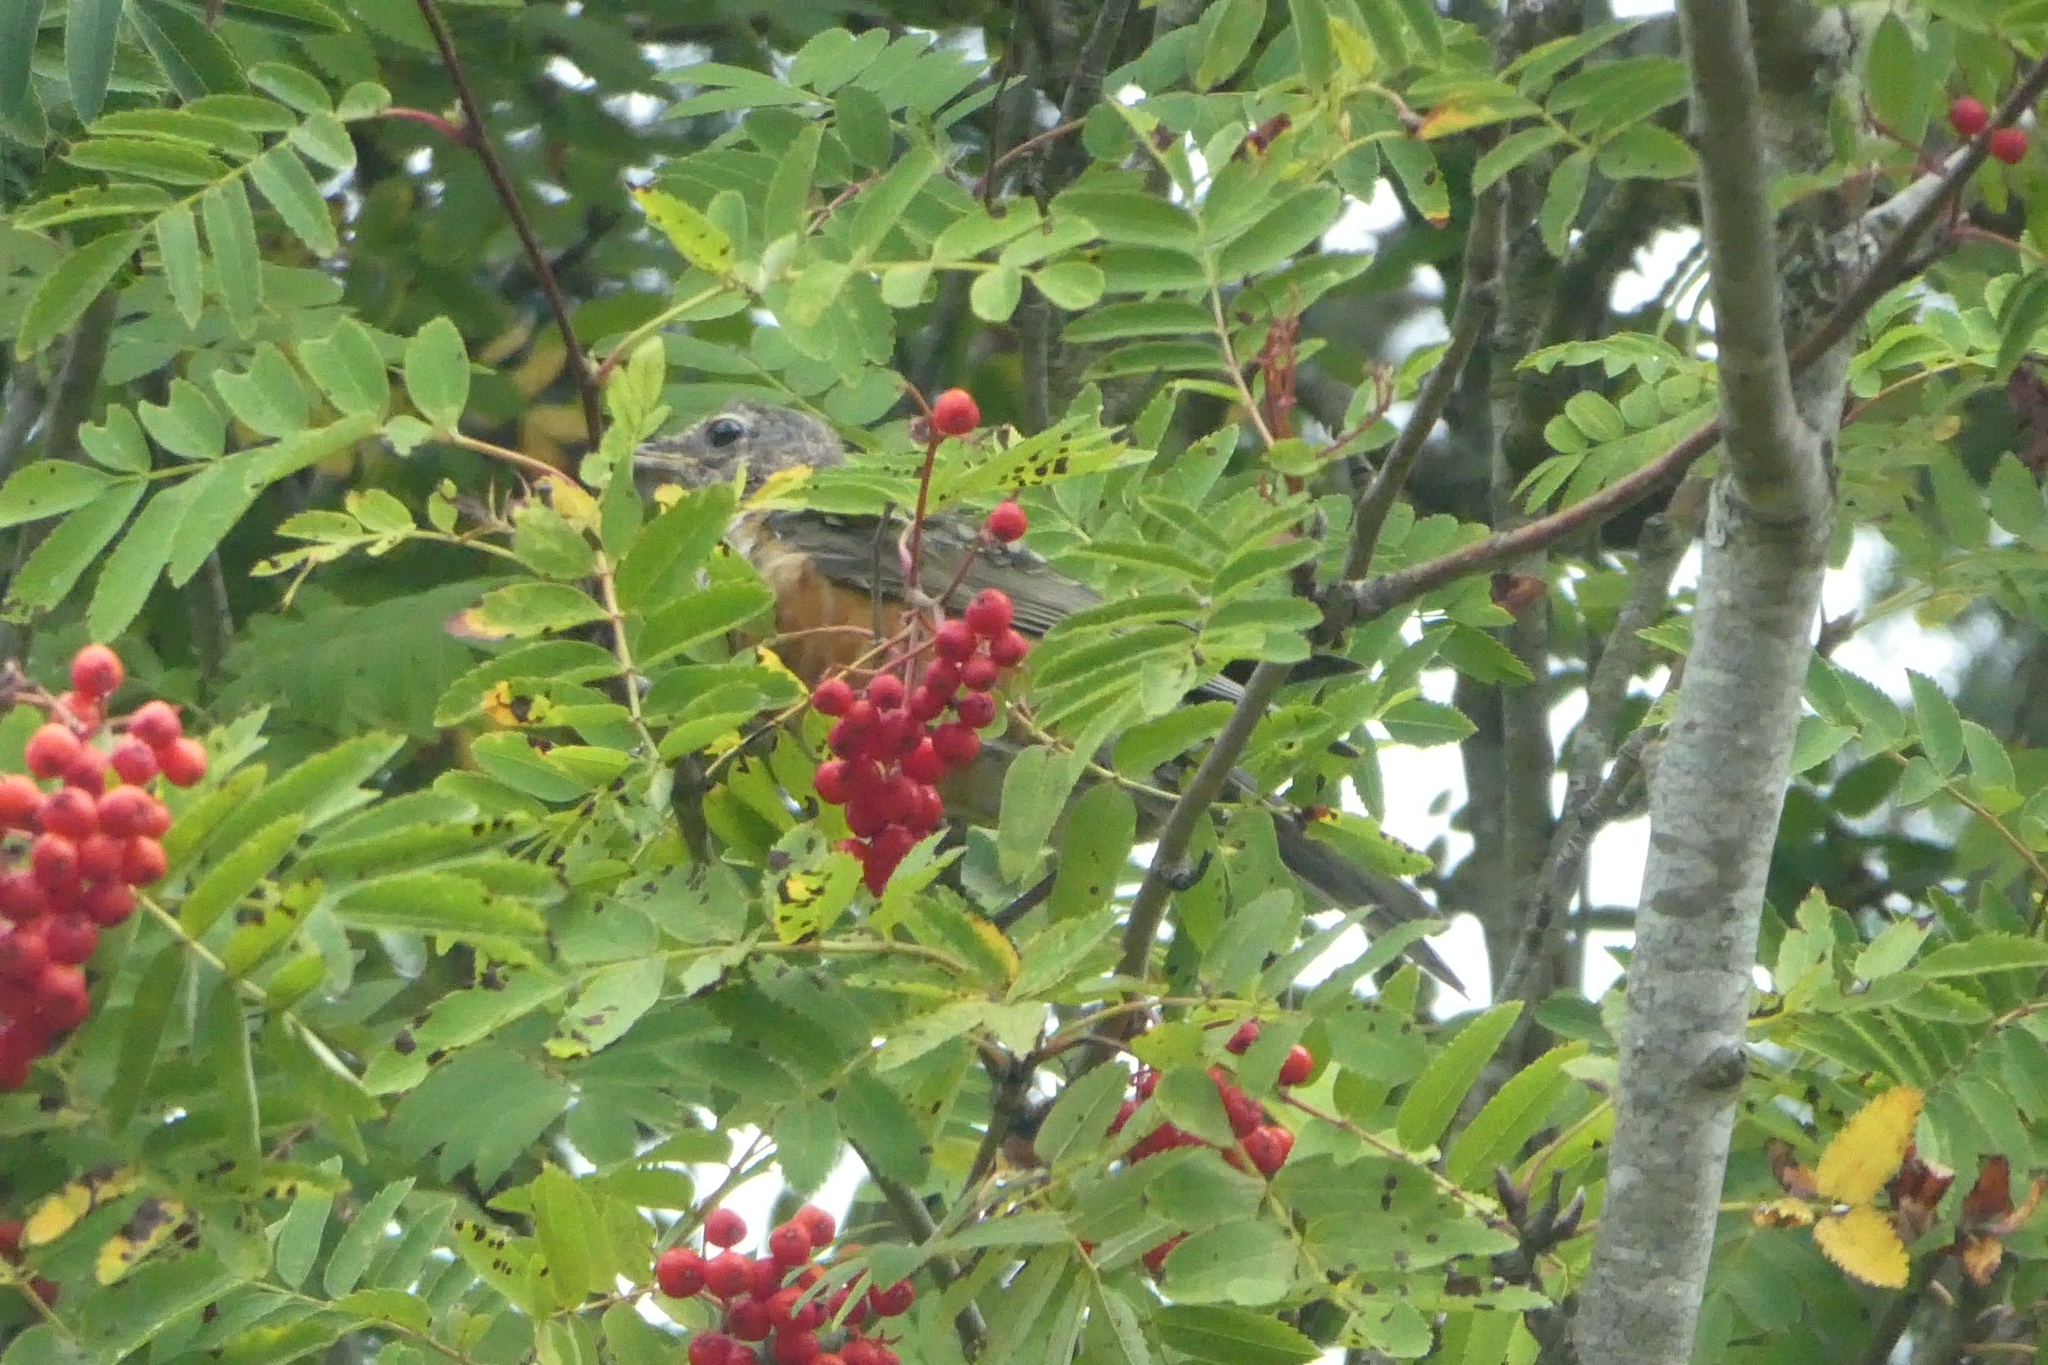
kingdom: Animalia
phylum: Chordata
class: Aves
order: Passeriformes
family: Turdidae
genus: Turdus
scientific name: Turdus migratorius
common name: American robin
